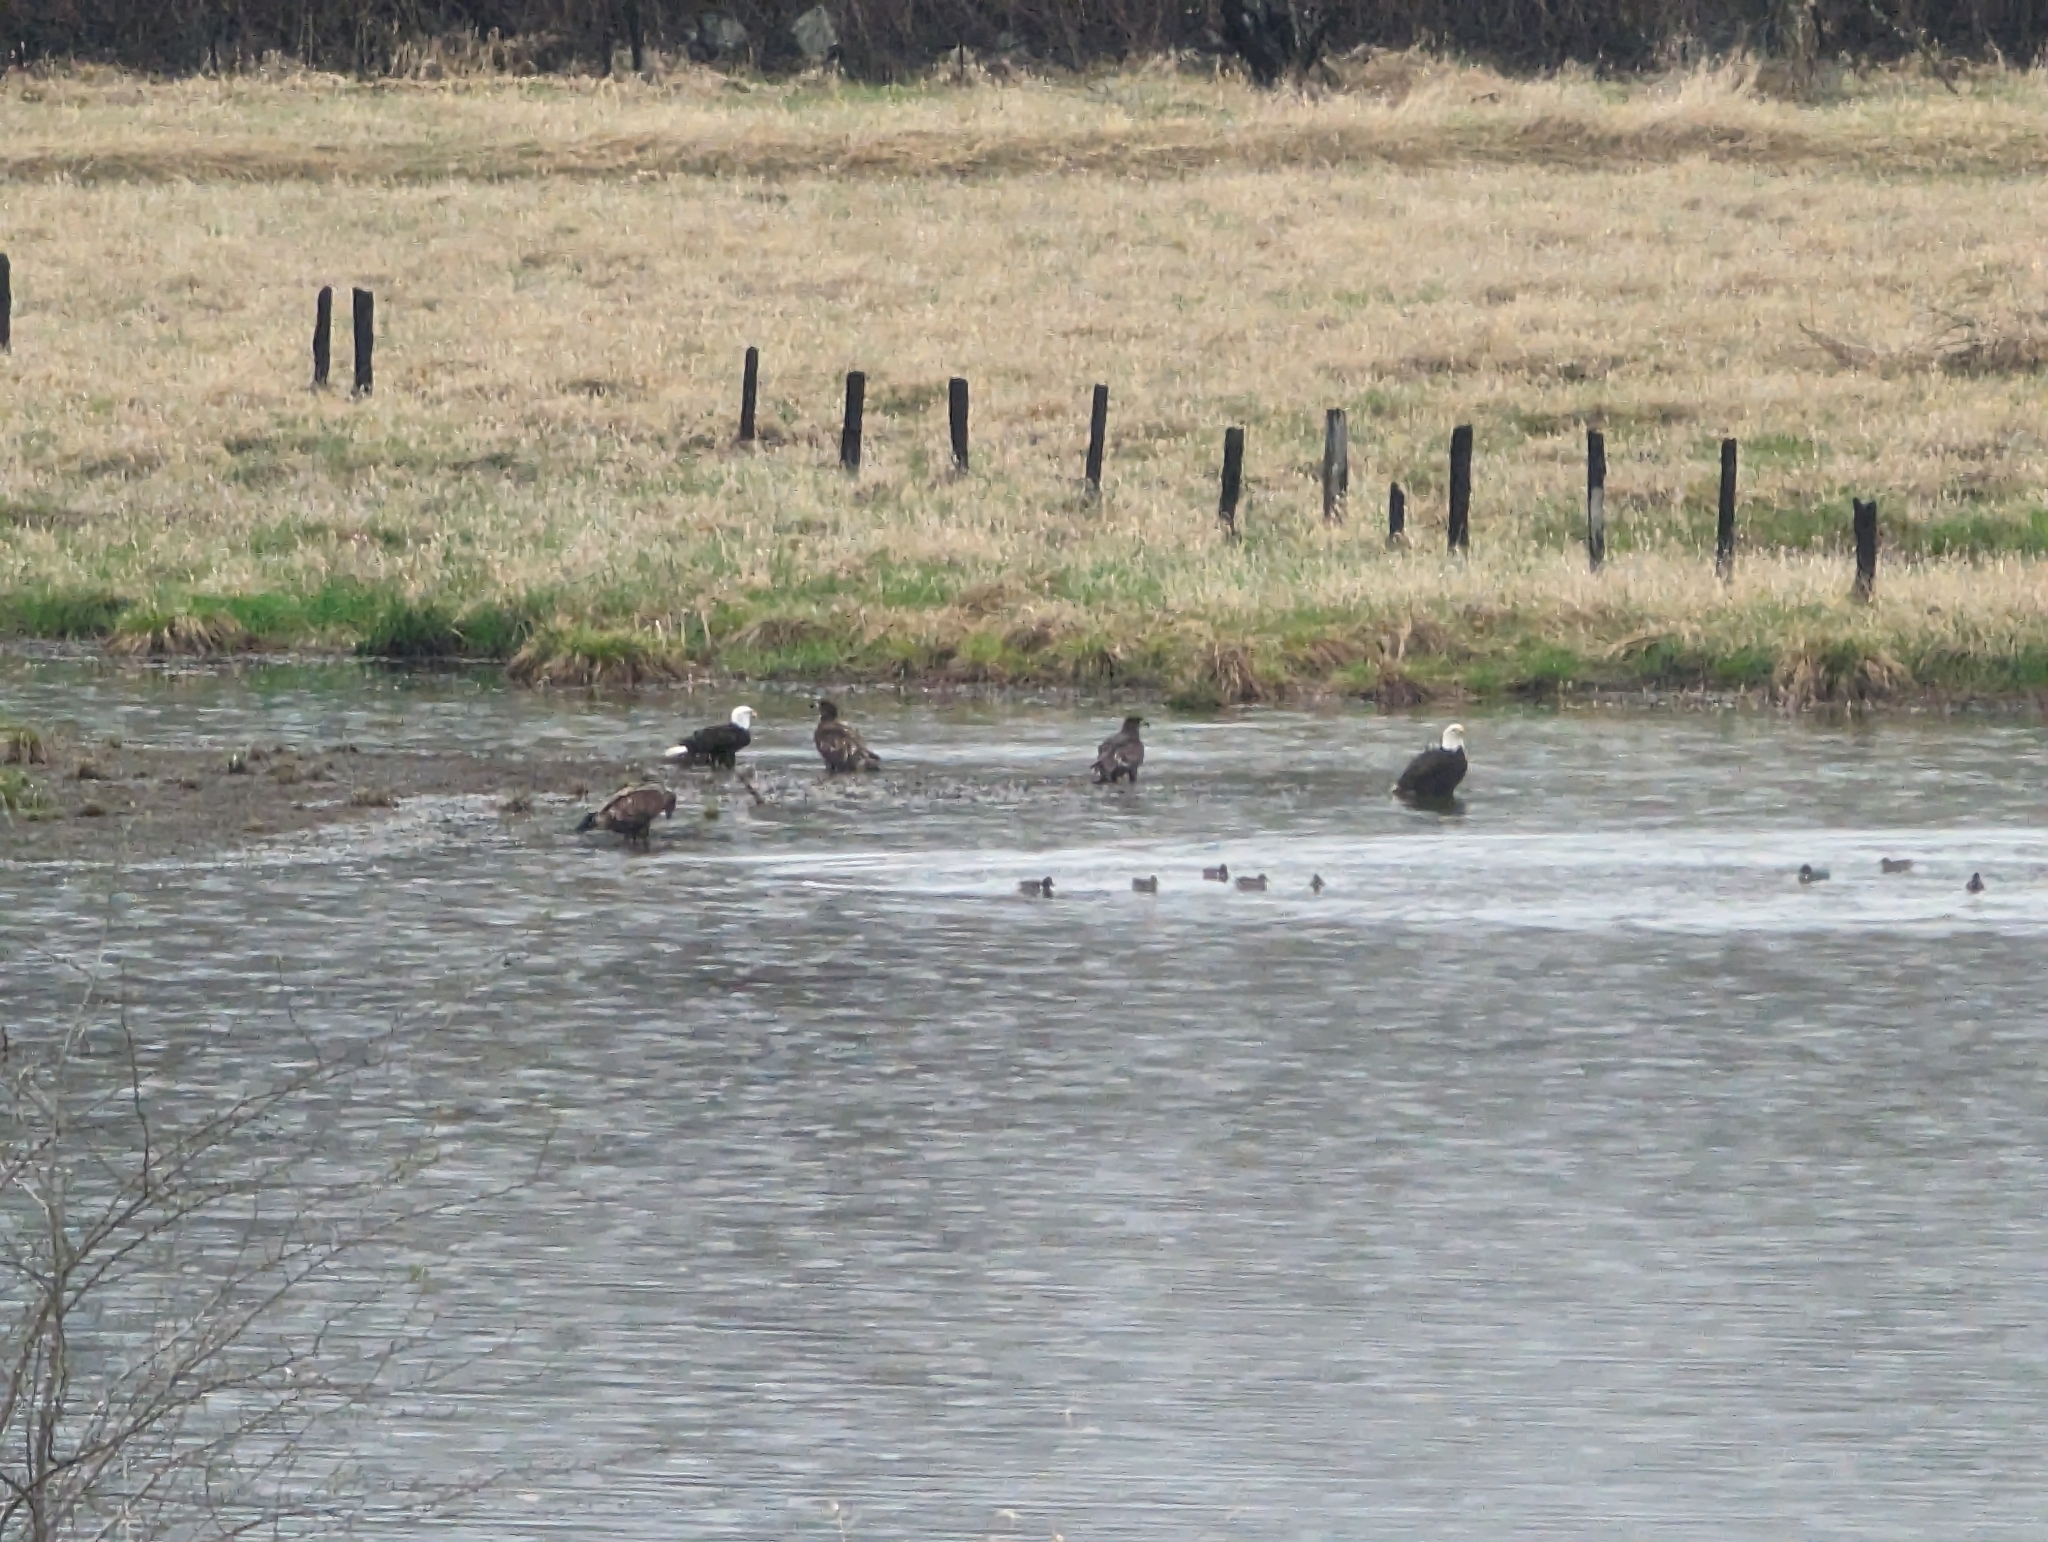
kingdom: Animalia
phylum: Chordata
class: Aves
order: Accipitriformes
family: Accipitridae
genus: Haliaeetus
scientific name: Haliaeetus leucocephalus
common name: Bald eagle
